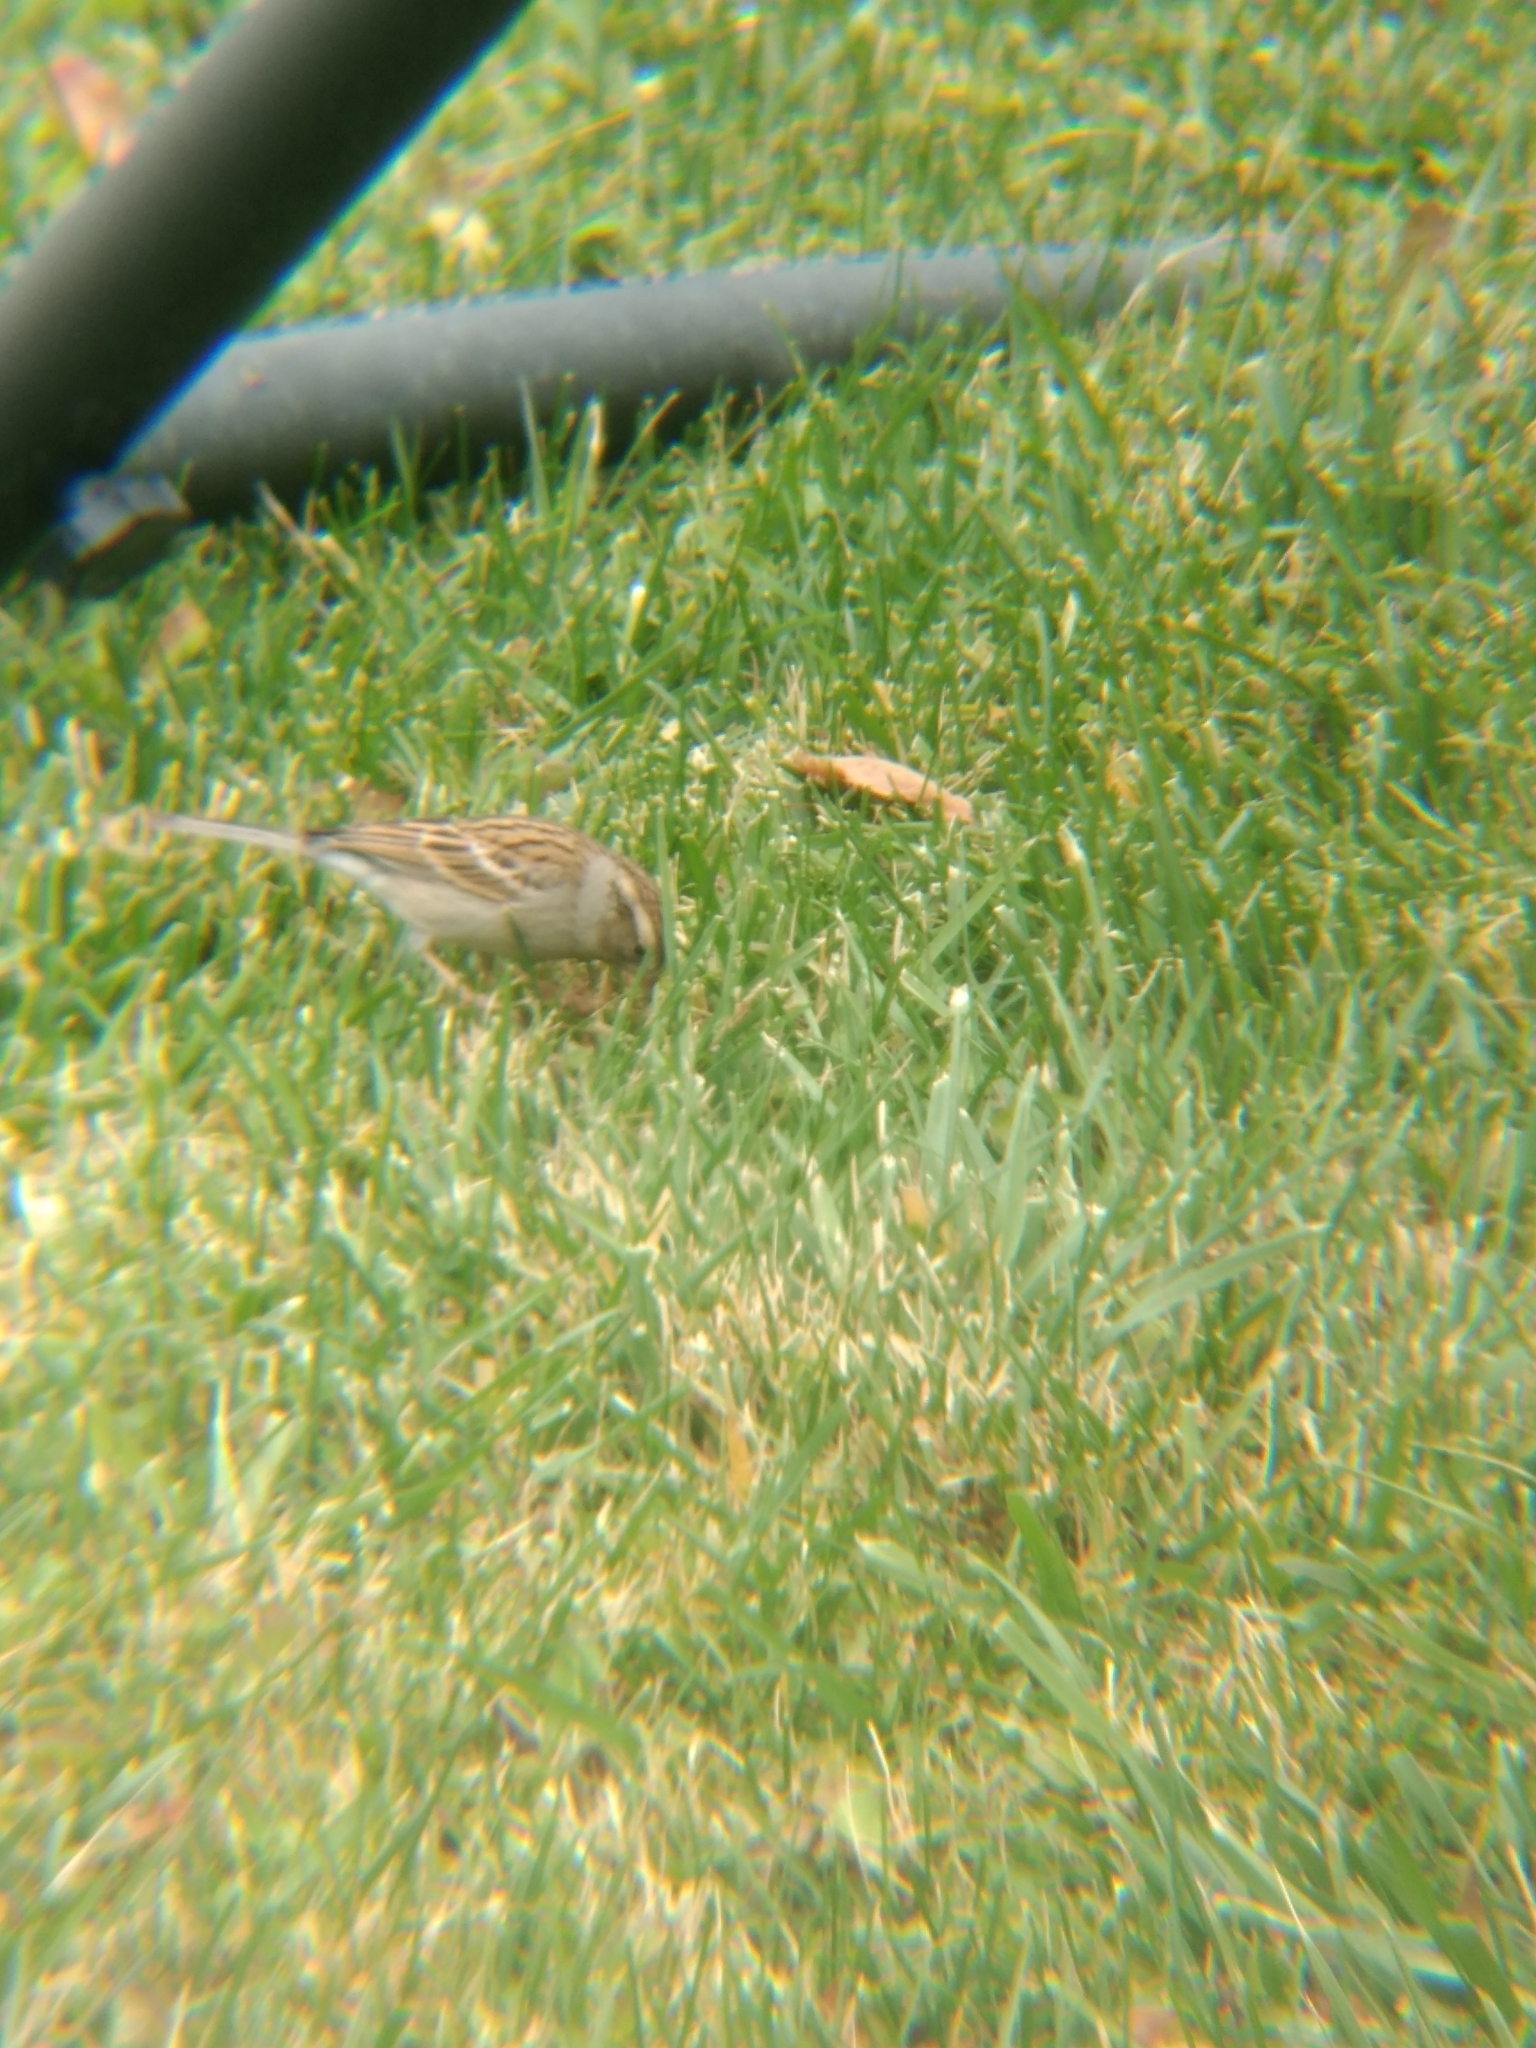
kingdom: Animalia
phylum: Chordata
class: Aves
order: Passeriformes
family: Passerellidae
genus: Spizella
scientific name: Spizella passerina
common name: Chipping sparrow
